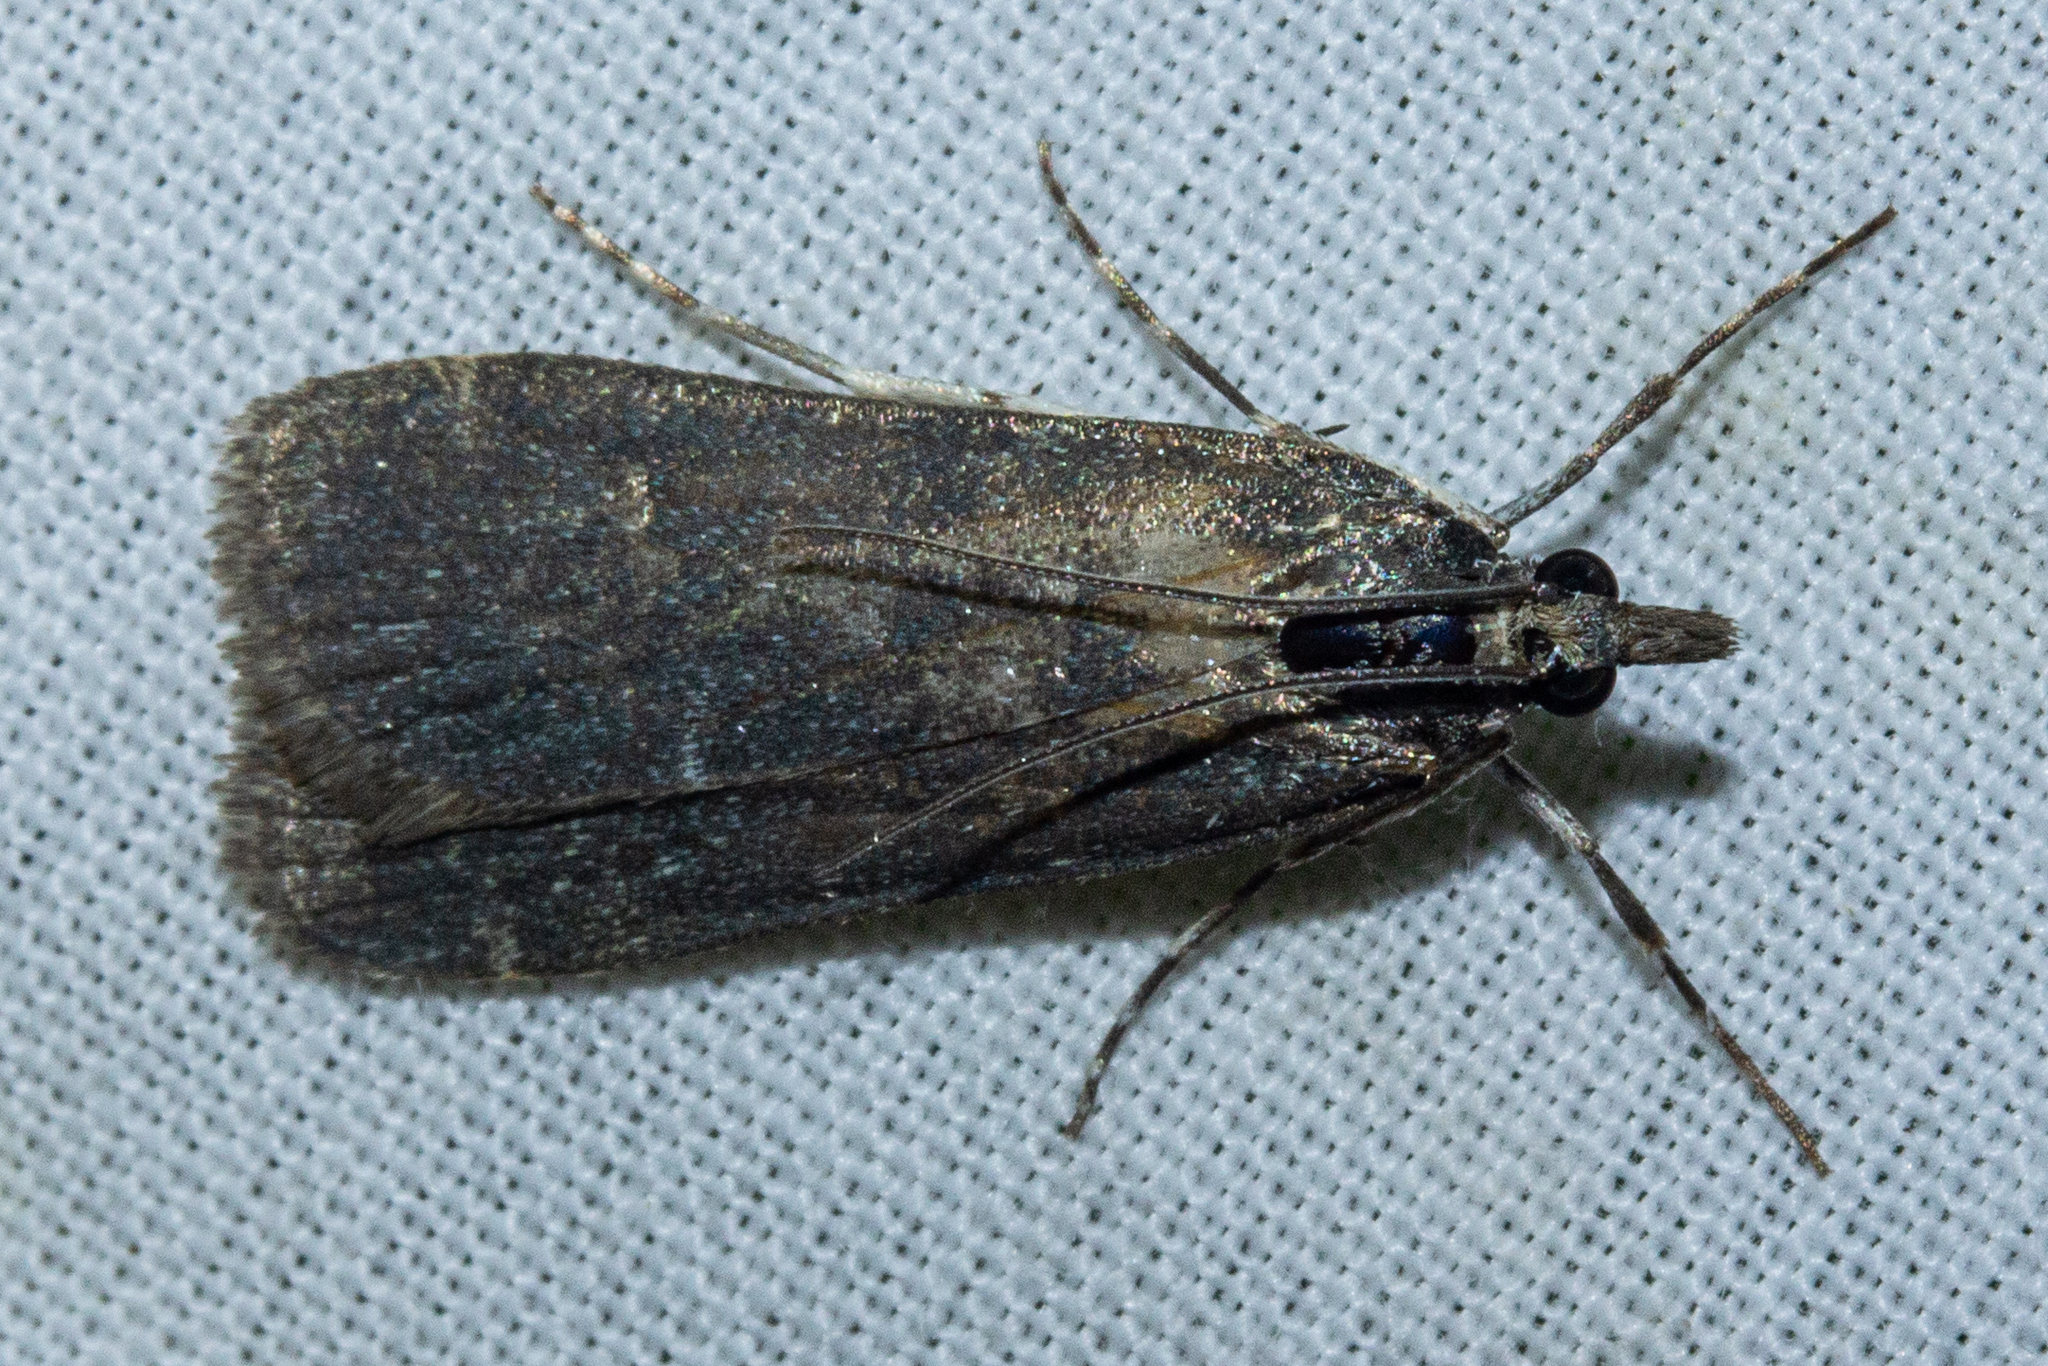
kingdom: Animalia
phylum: Arthropoda
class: Insecta
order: Lepidoptera
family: Crambidae
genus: Eudonia
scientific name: Eudonia cataxesta
